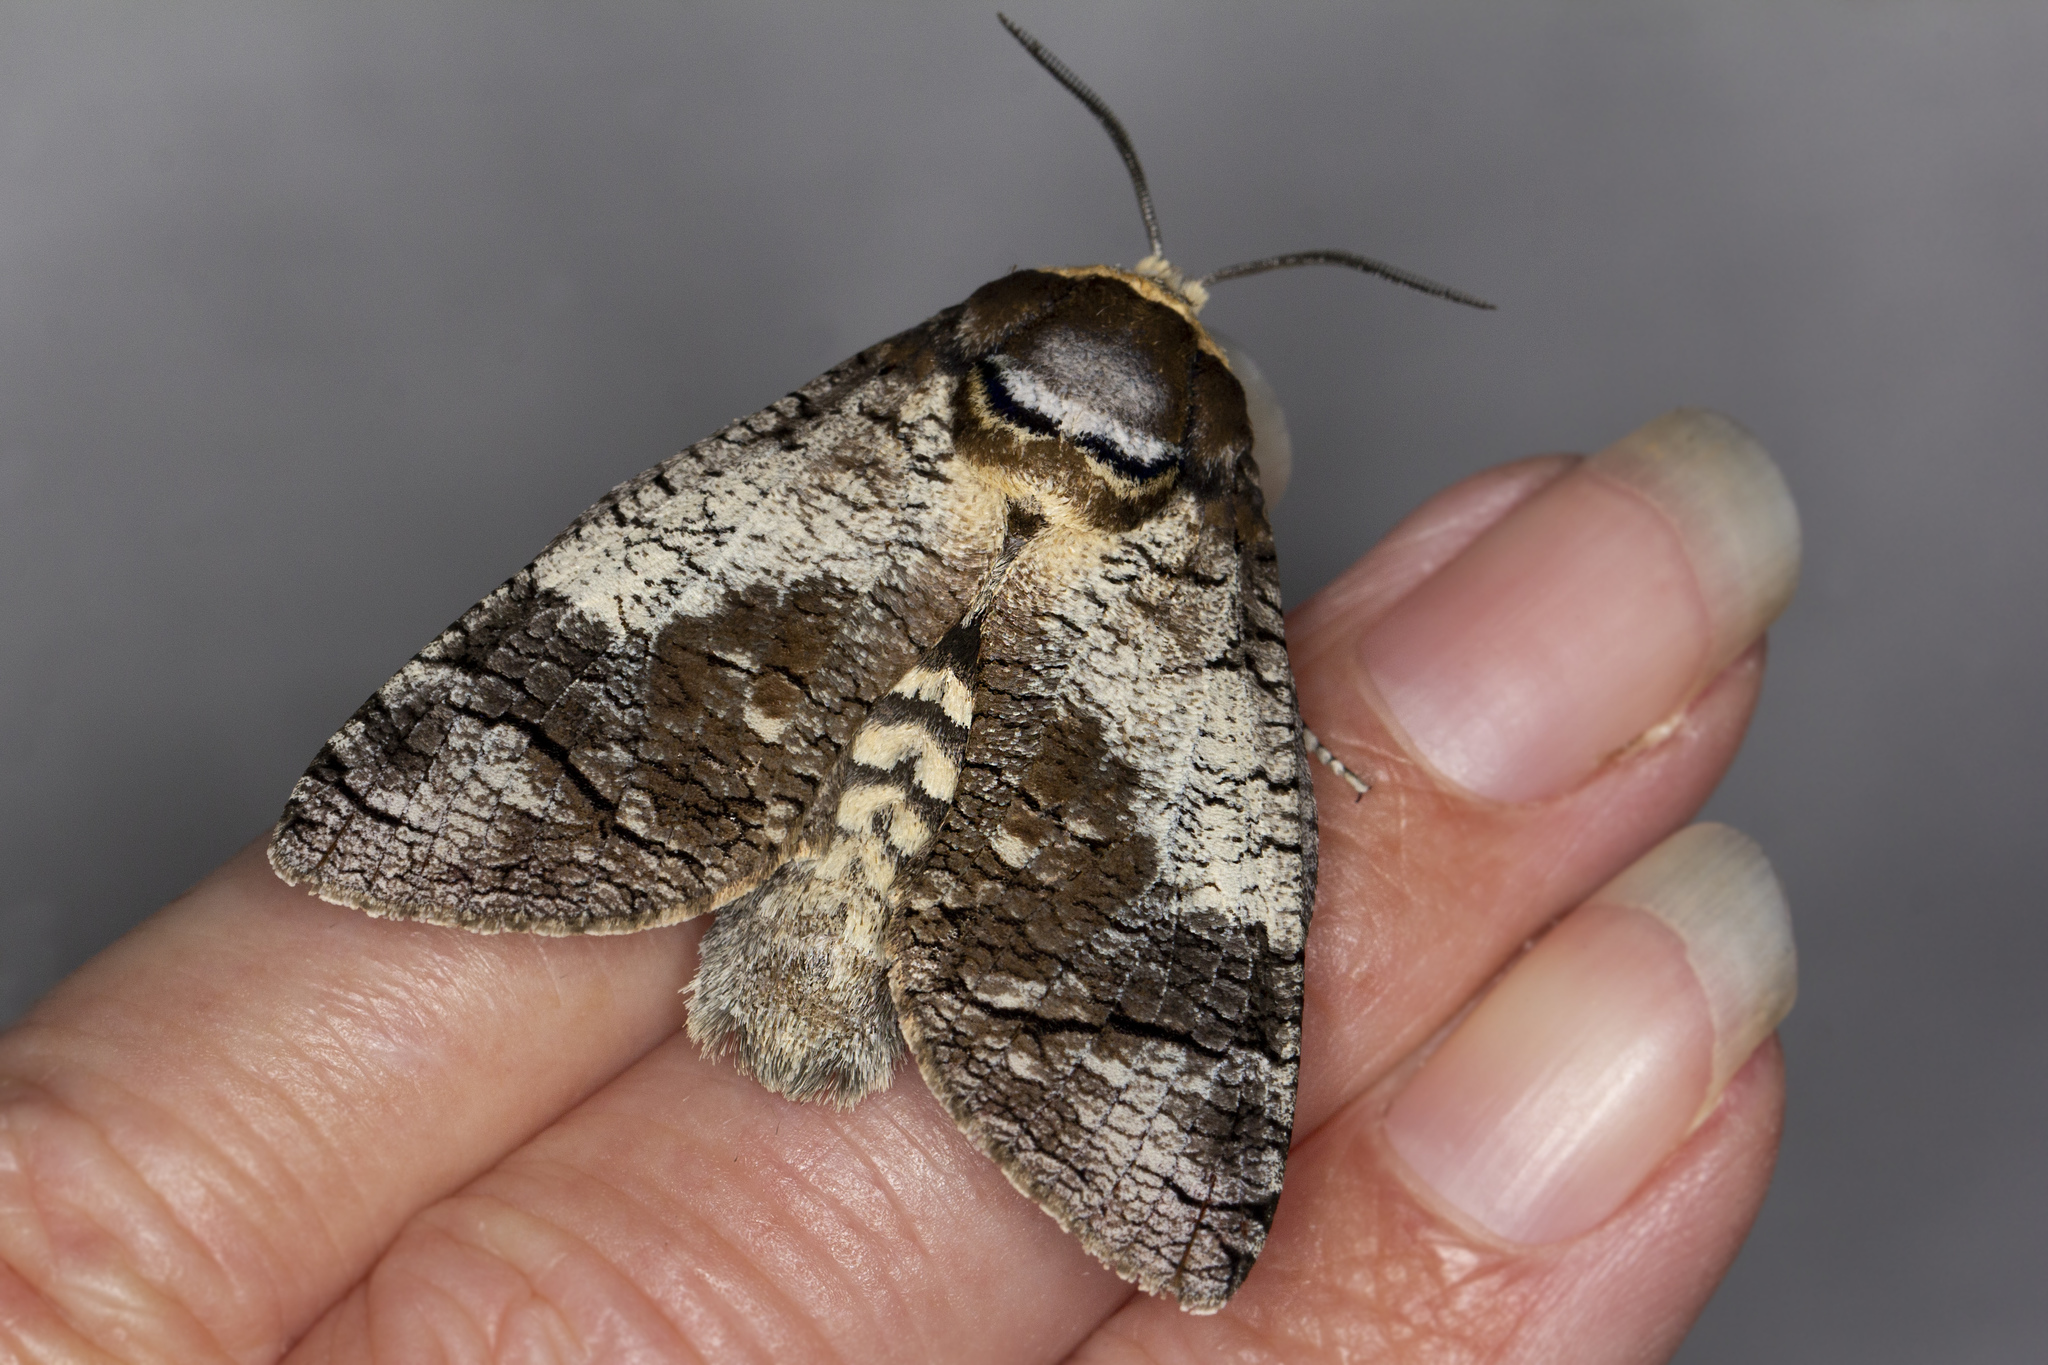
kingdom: Animalia
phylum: Arthropoda
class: Insecta
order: Lepidoptera
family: Cossidae
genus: Cossus
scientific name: Cossus cossus
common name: Goat moth
